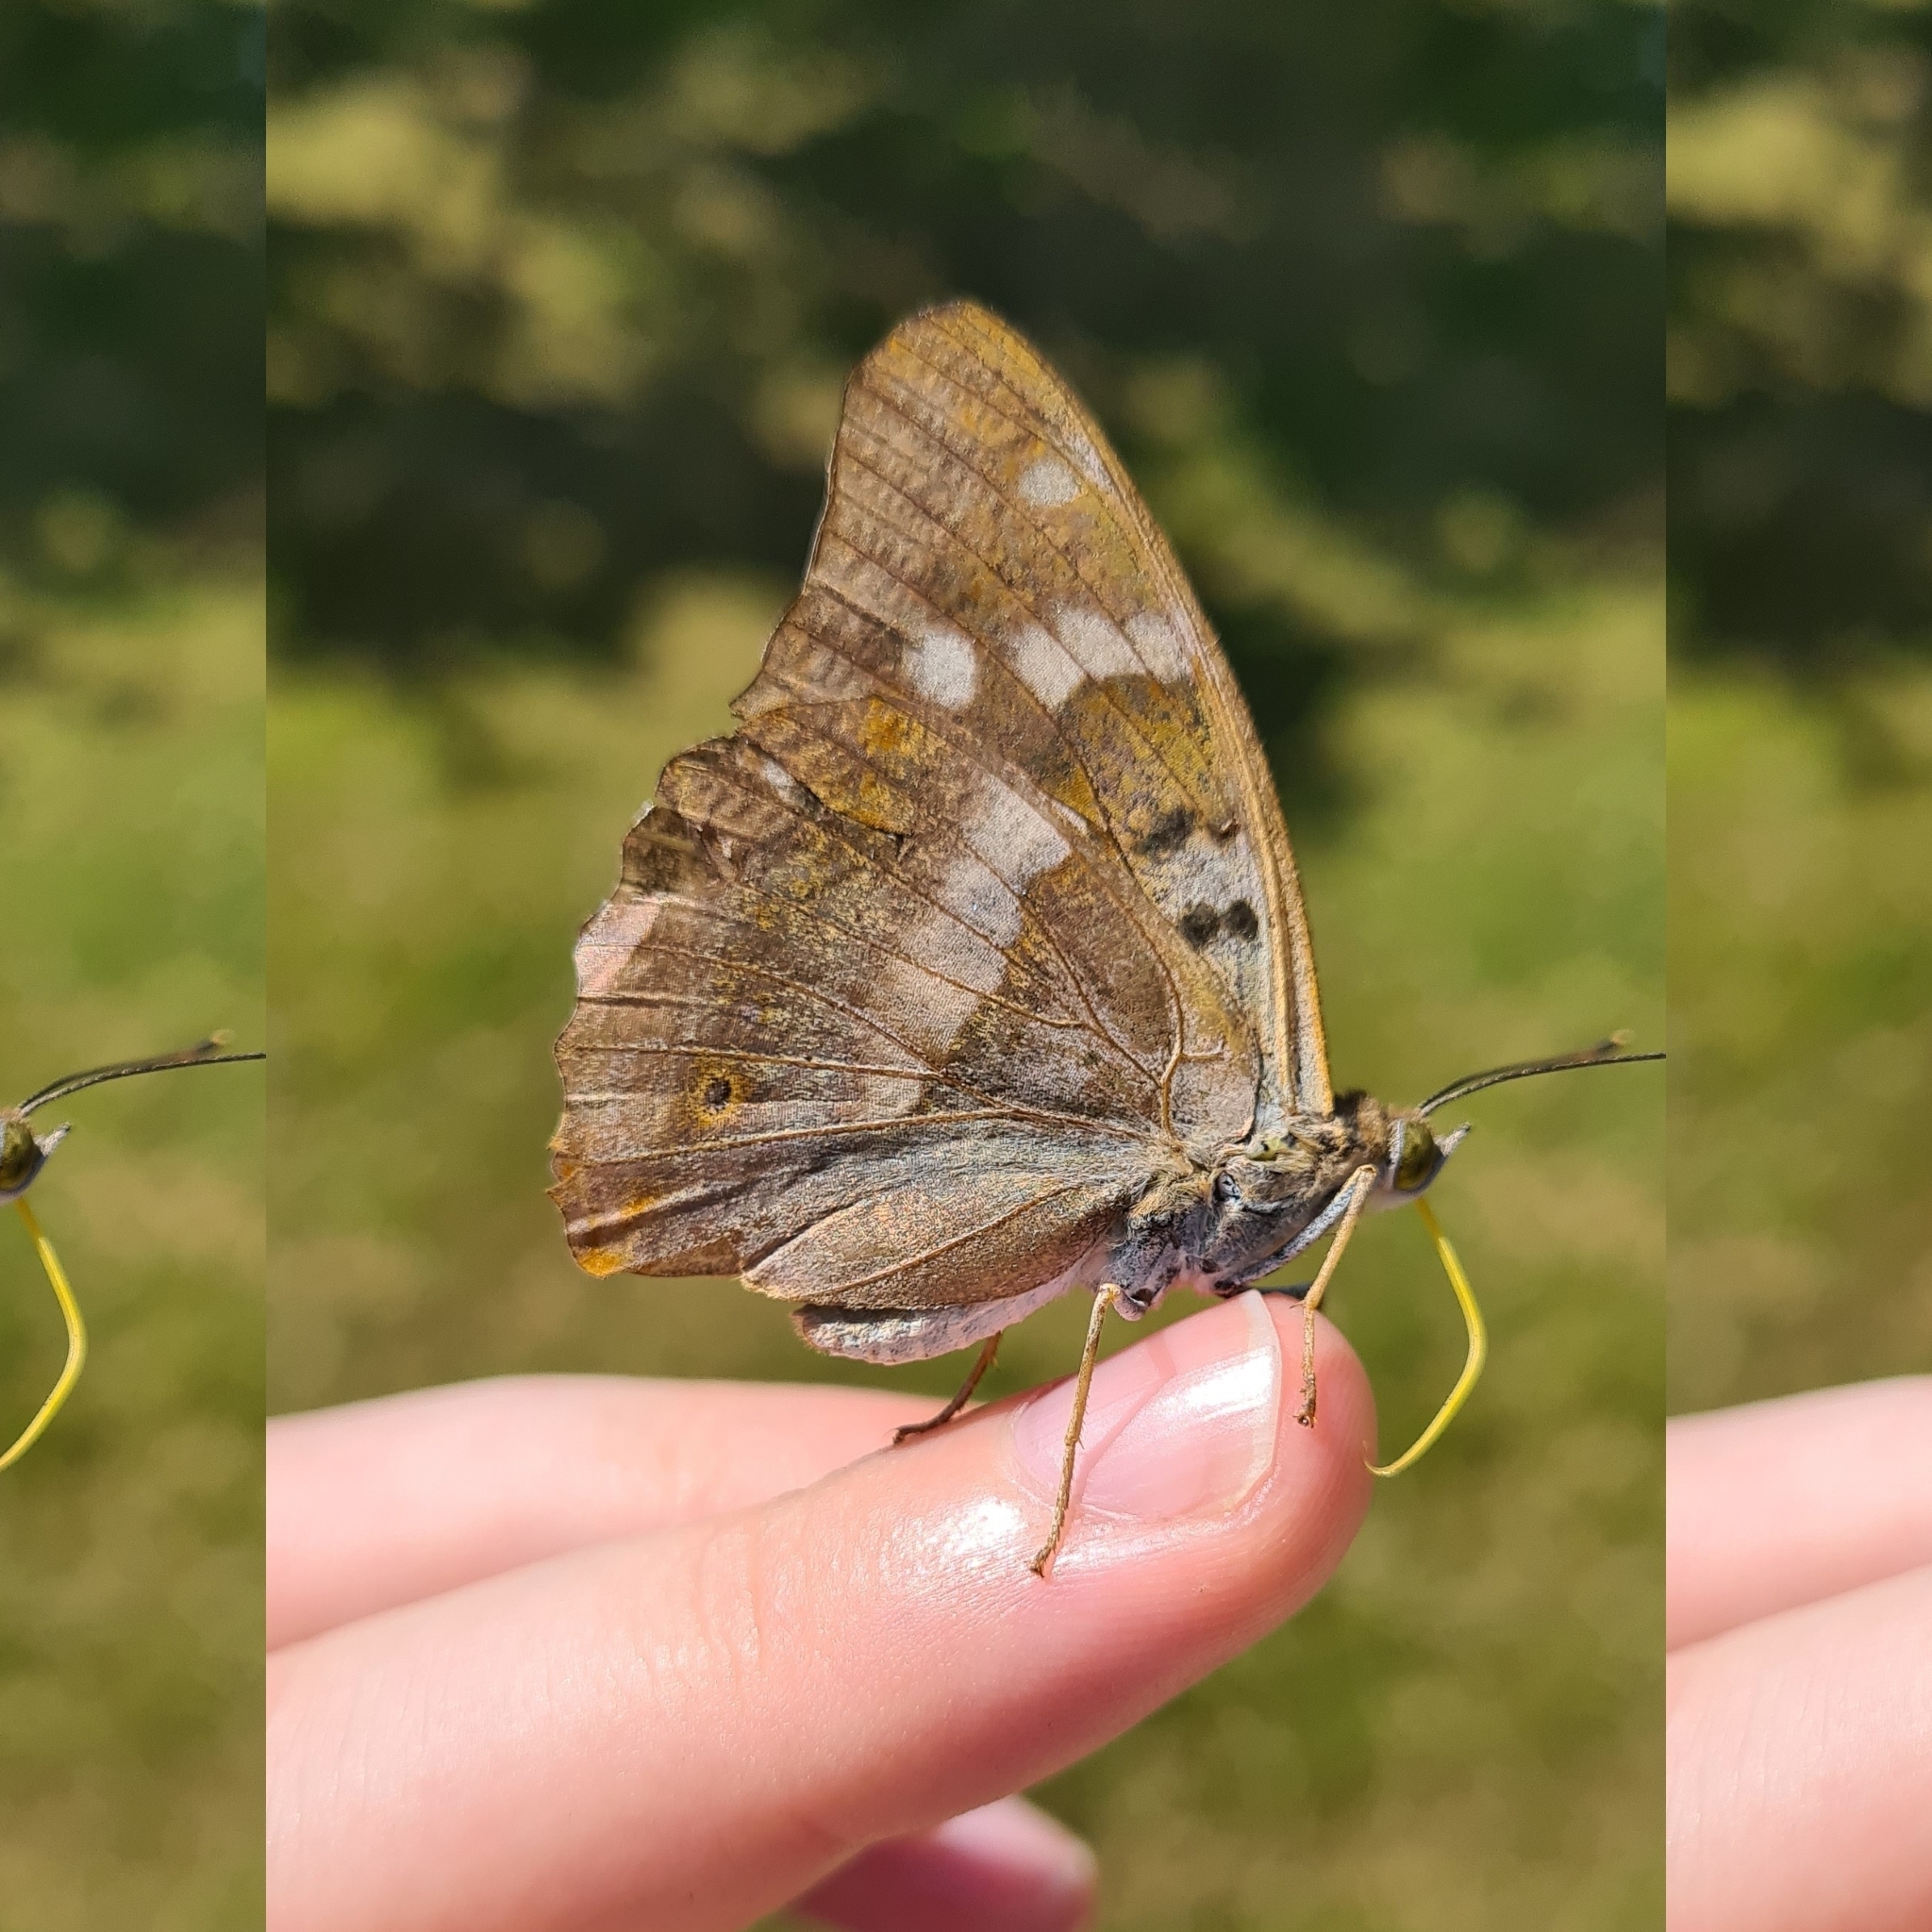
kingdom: Animalia
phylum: Arthropoda
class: Insecta
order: Lepidoptera
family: Nymphalidae
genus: Apatura
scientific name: Apatura ilia
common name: Lesser purple emperor
